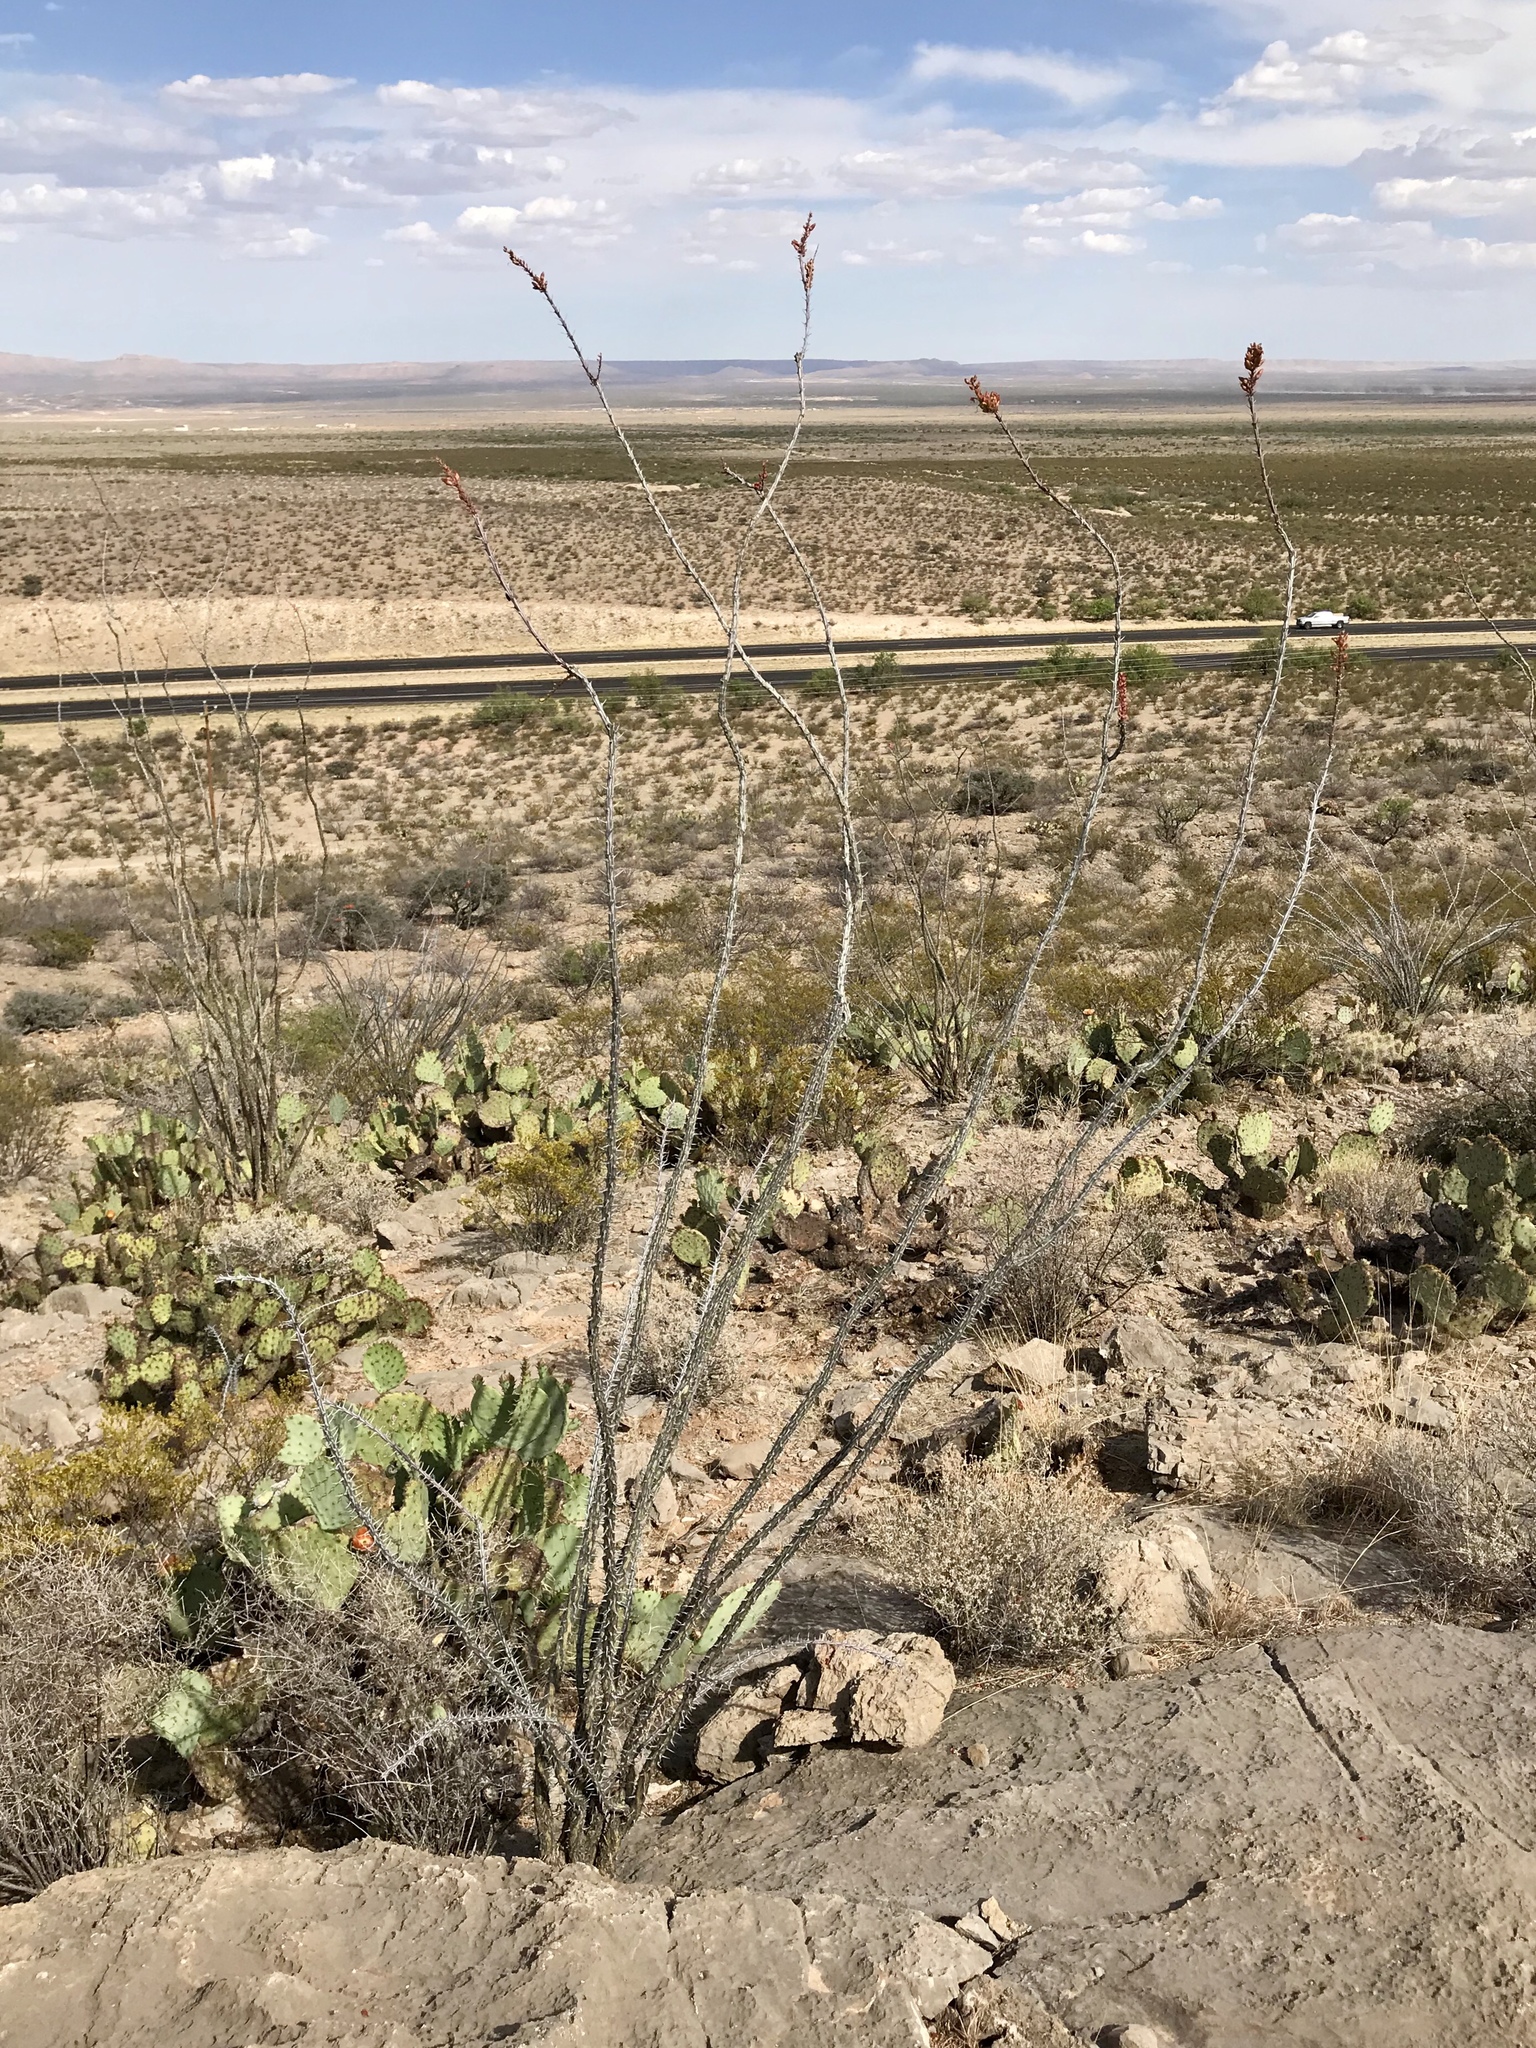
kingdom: Plantae
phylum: Tracheophyta
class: Magnoliopsida
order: Ericales
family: Fouquieriaceae
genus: Fouquieria
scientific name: Fouquieria splendens
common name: Vine-cactus
